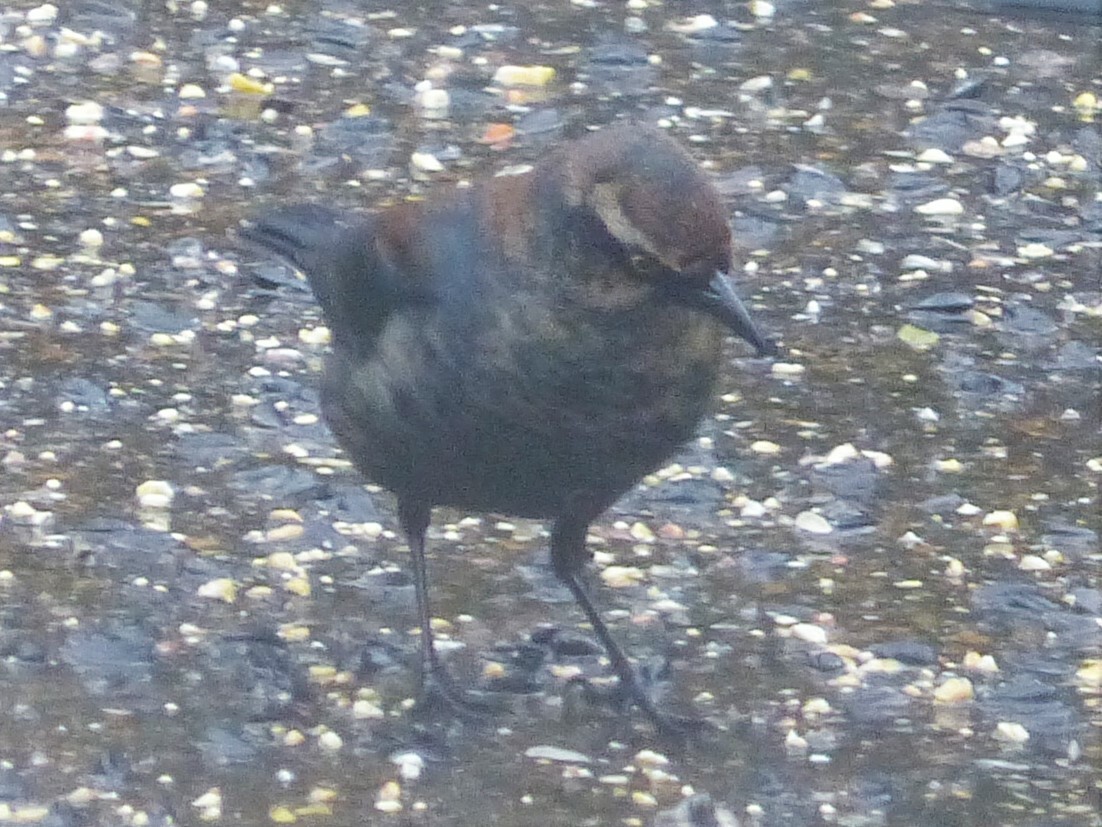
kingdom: Animalia
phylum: Chordata
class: Aves
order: Passeriformes
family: Icteridae
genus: Euphagus
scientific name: Euphagus carolinus
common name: Rusty blackbird
